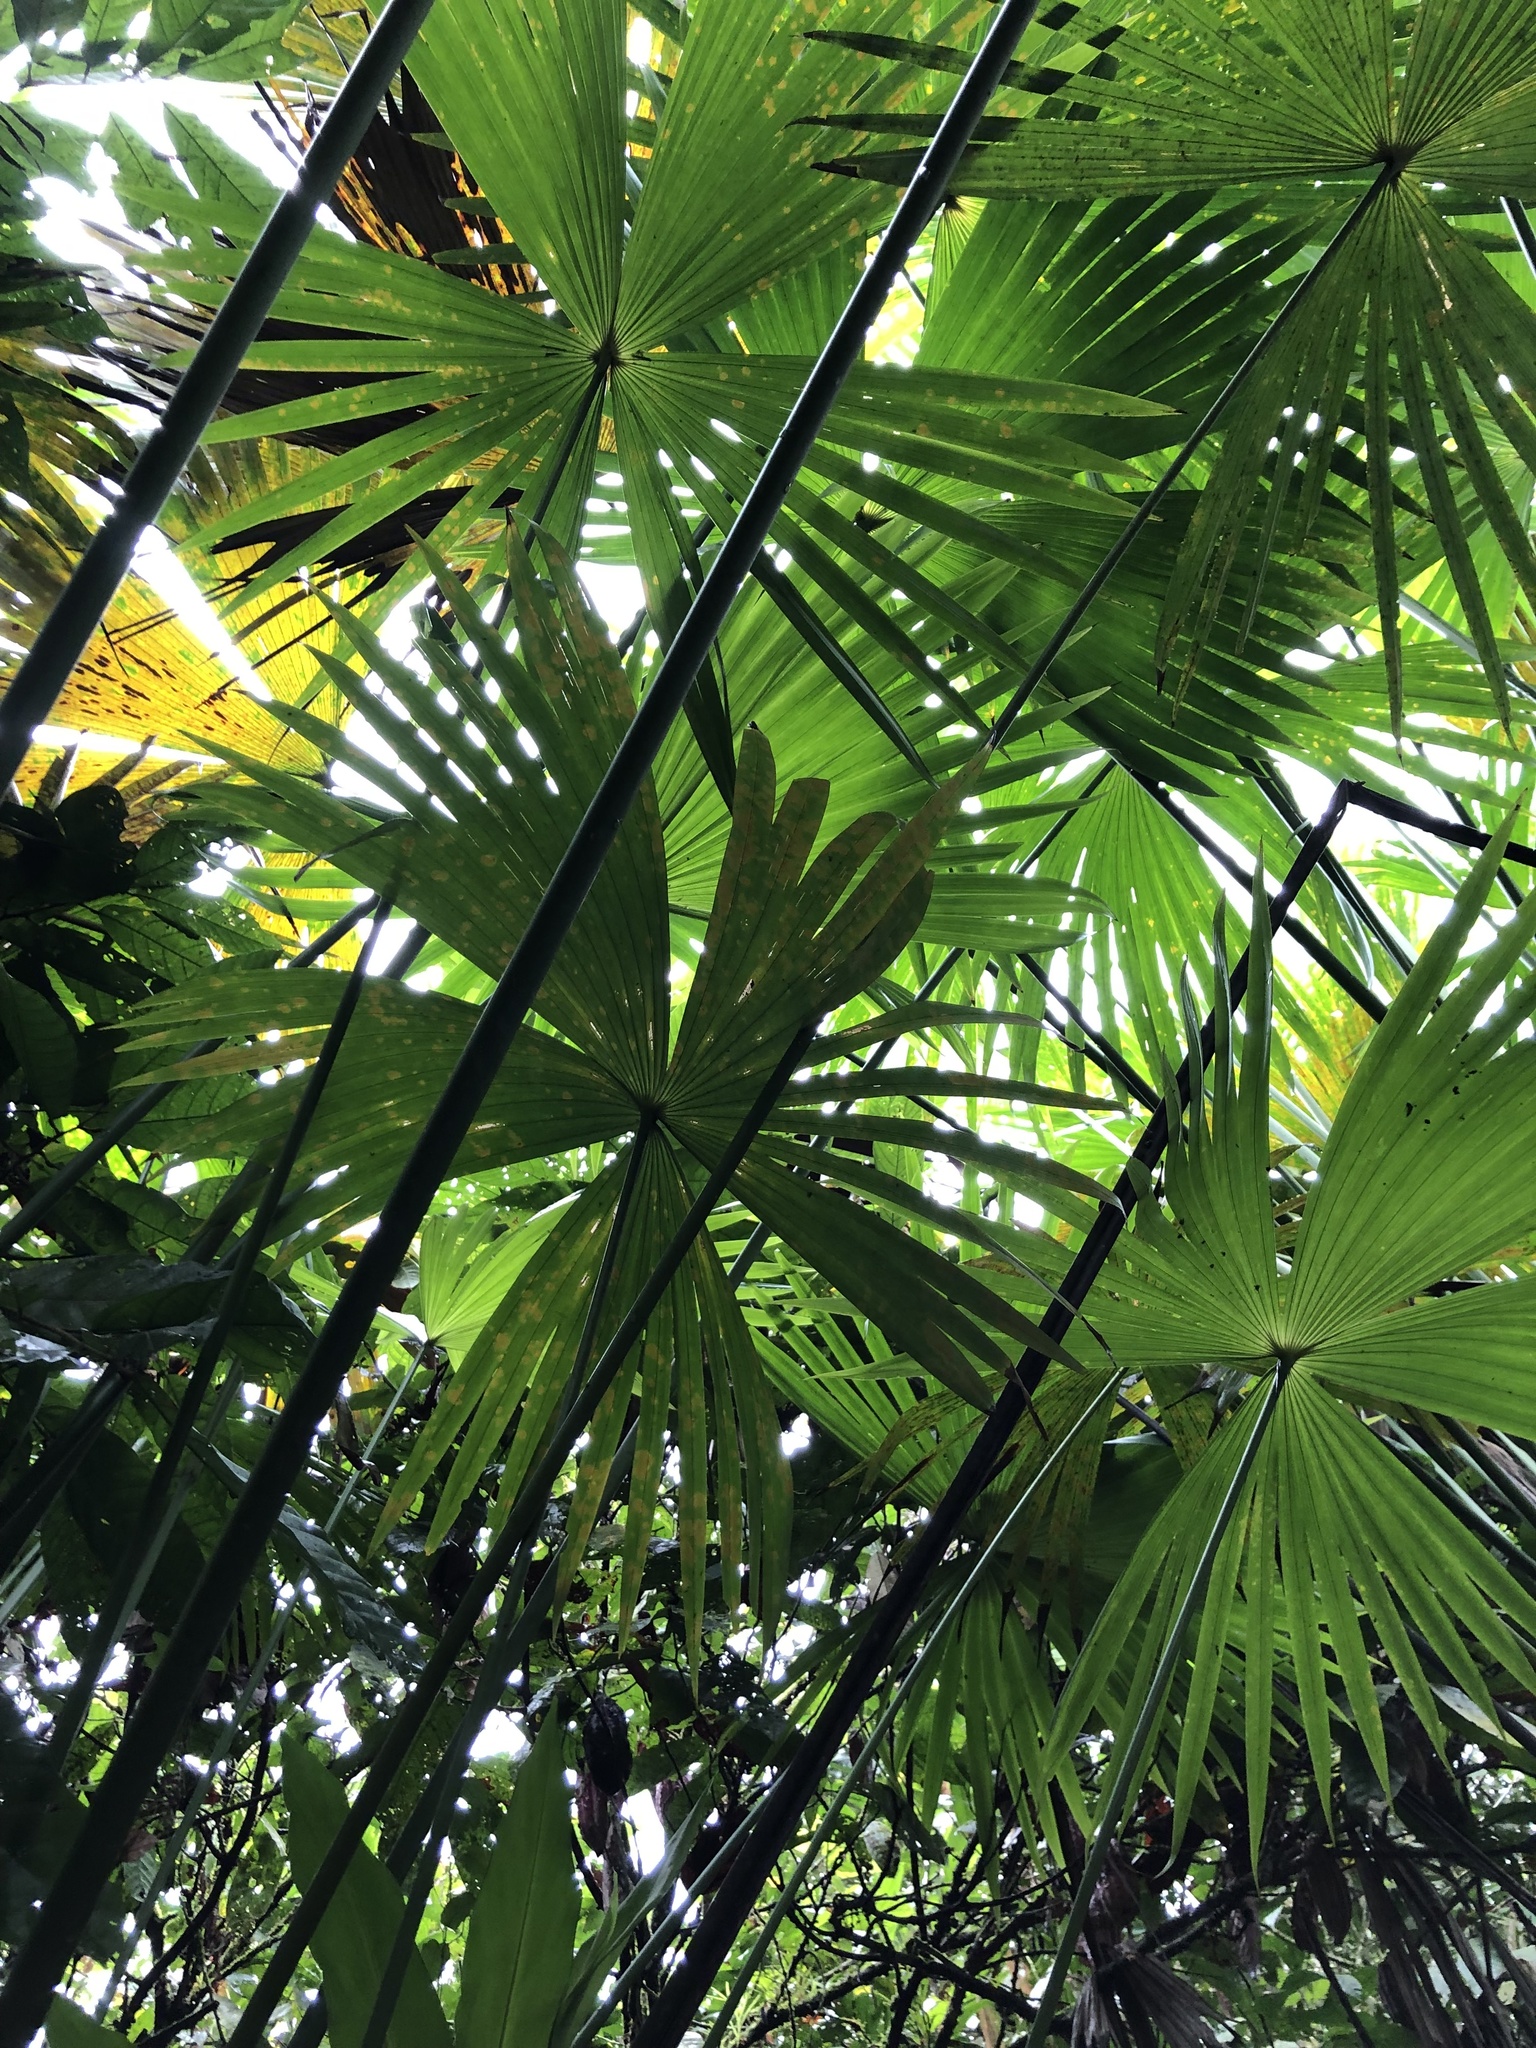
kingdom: Plantae
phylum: Tracheophyta
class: Liliopsida
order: Pandanales
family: Cyclanthaceae
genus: Carludovica
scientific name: Carludovica palmata
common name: Panama hat plant
